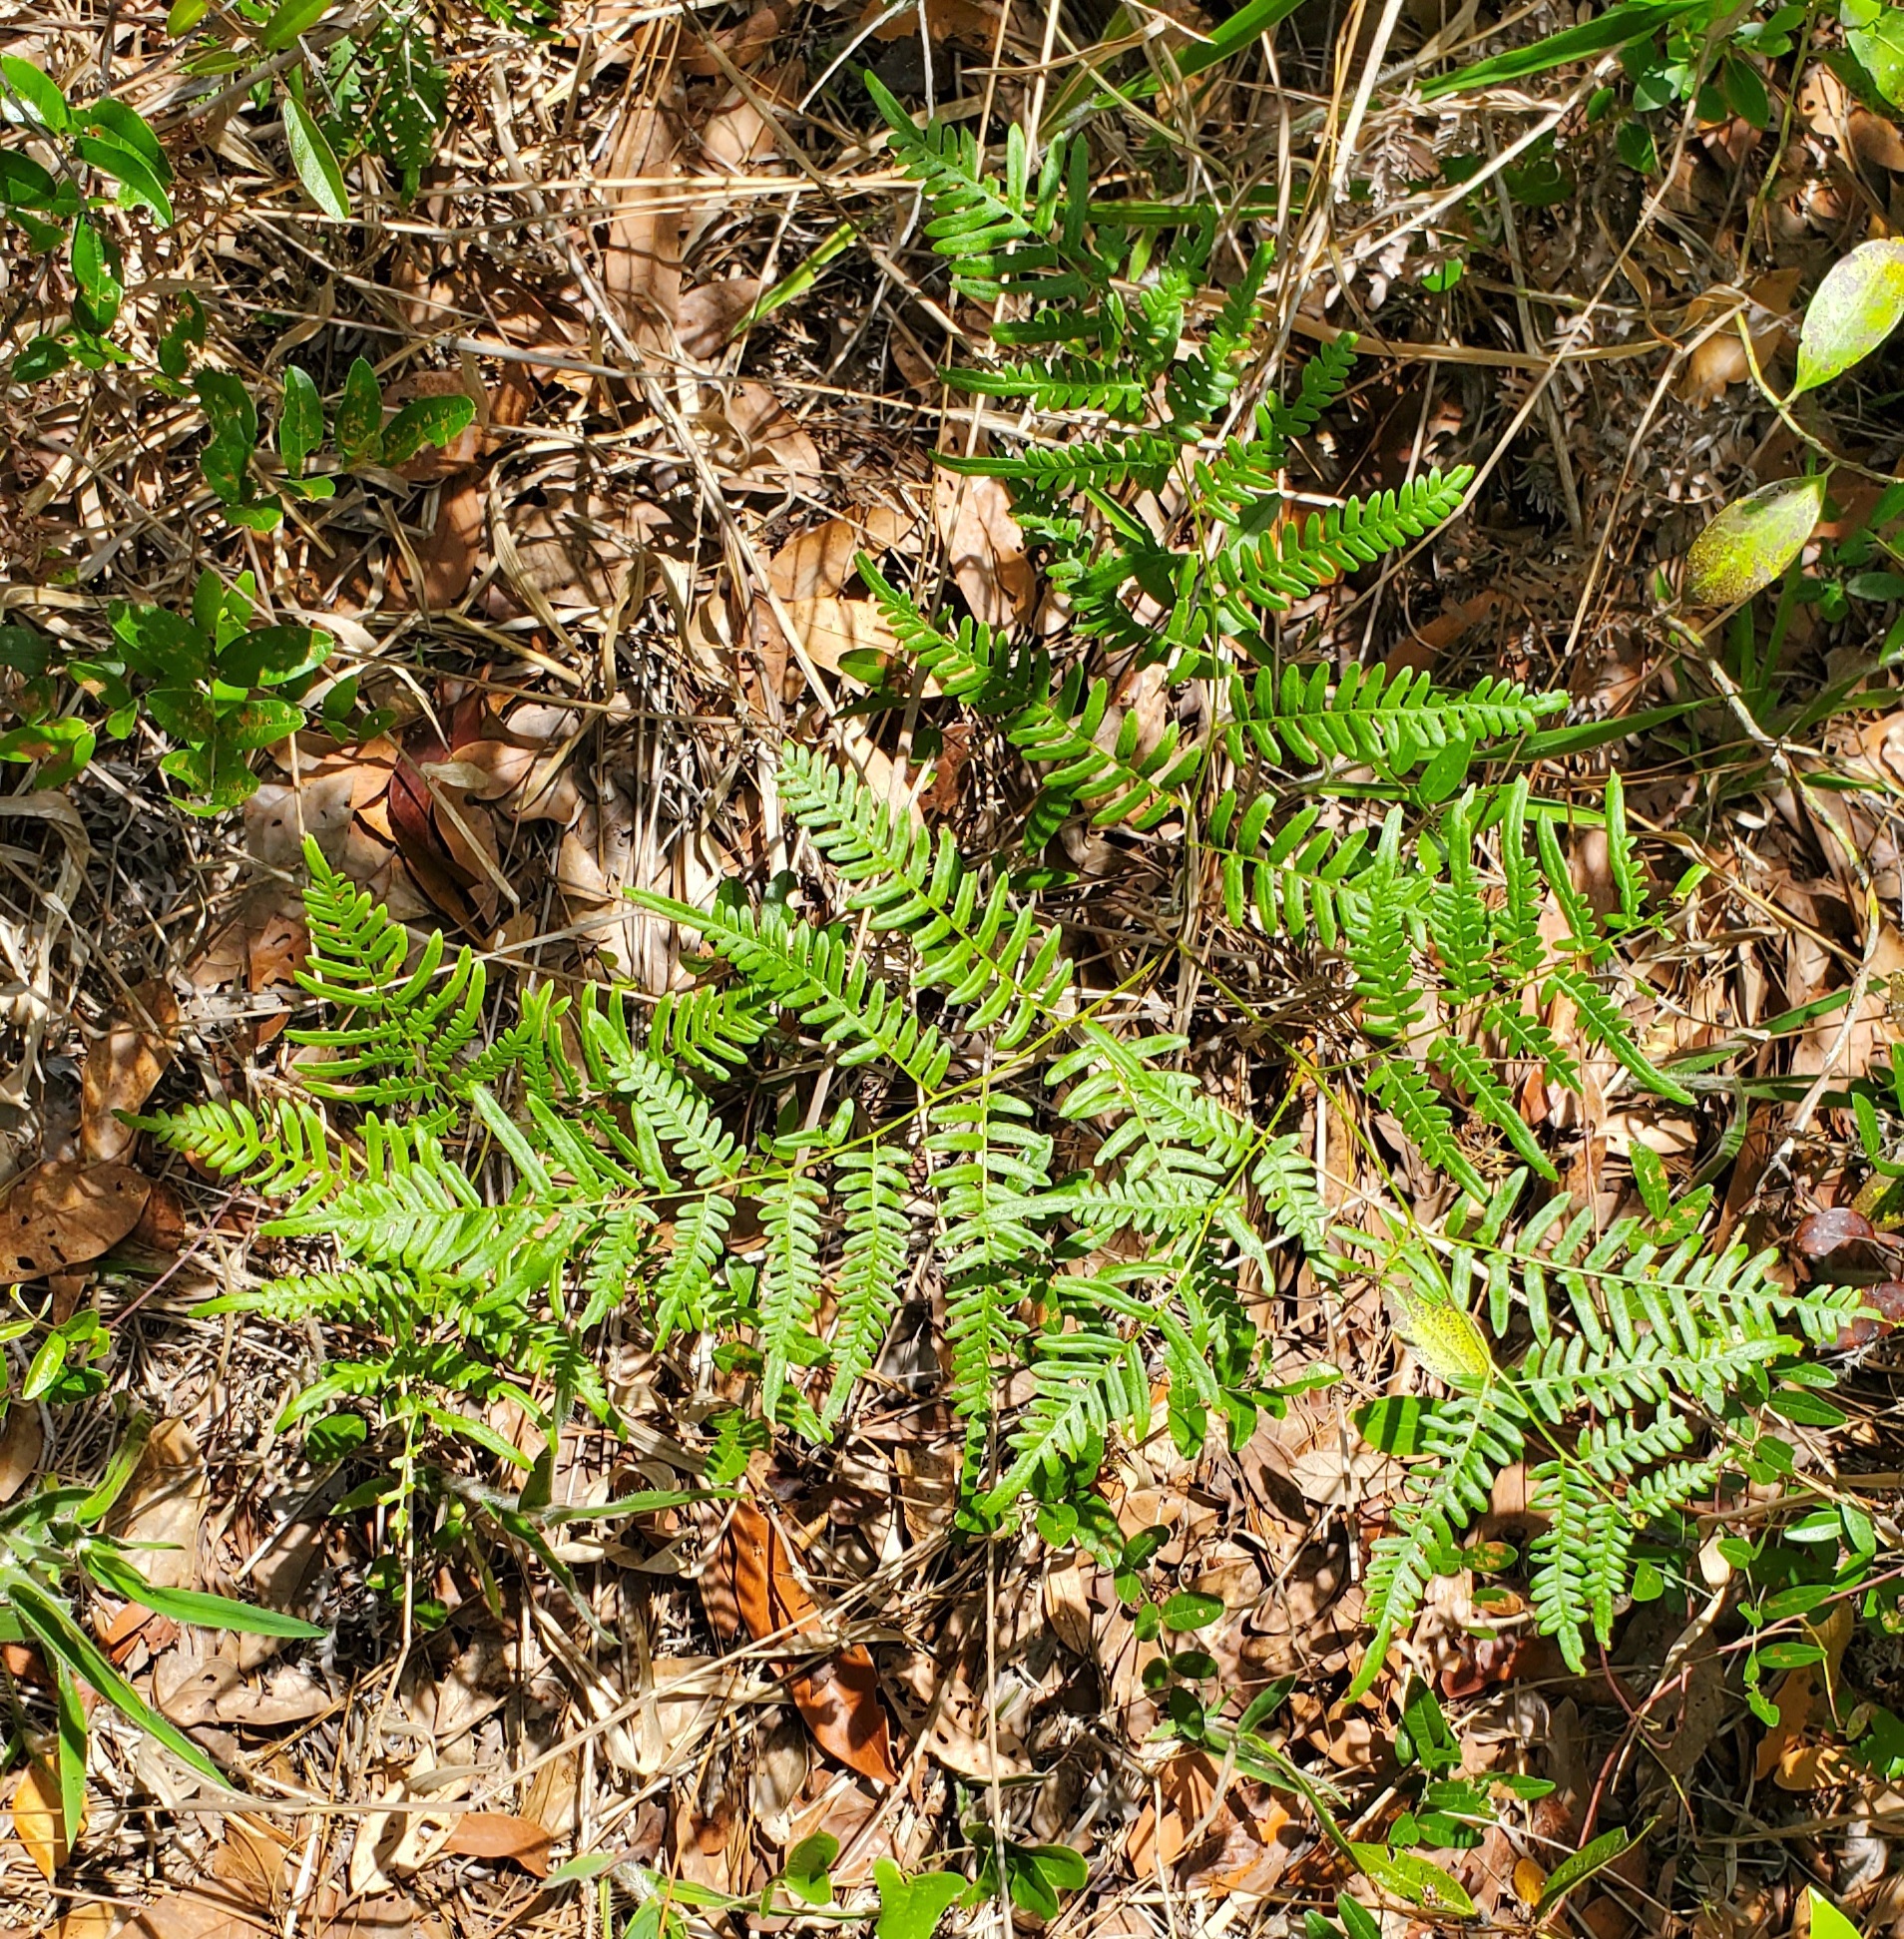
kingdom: Plantae
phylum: Tracheophyta
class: Polypodiopsida
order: Polypodiales
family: Dennstaedtiaceae
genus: Pteridium
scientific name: Pteridium
